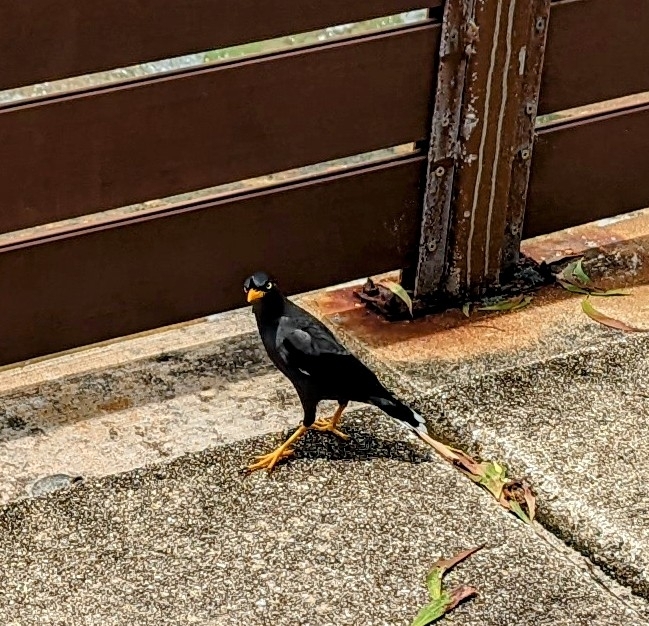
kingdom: Animalia
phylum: Chordata
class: Aves
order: Passeriformes
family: Sturnidae
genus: Acridotheres
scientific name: Acridotheres javanicus
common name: Javan myna
